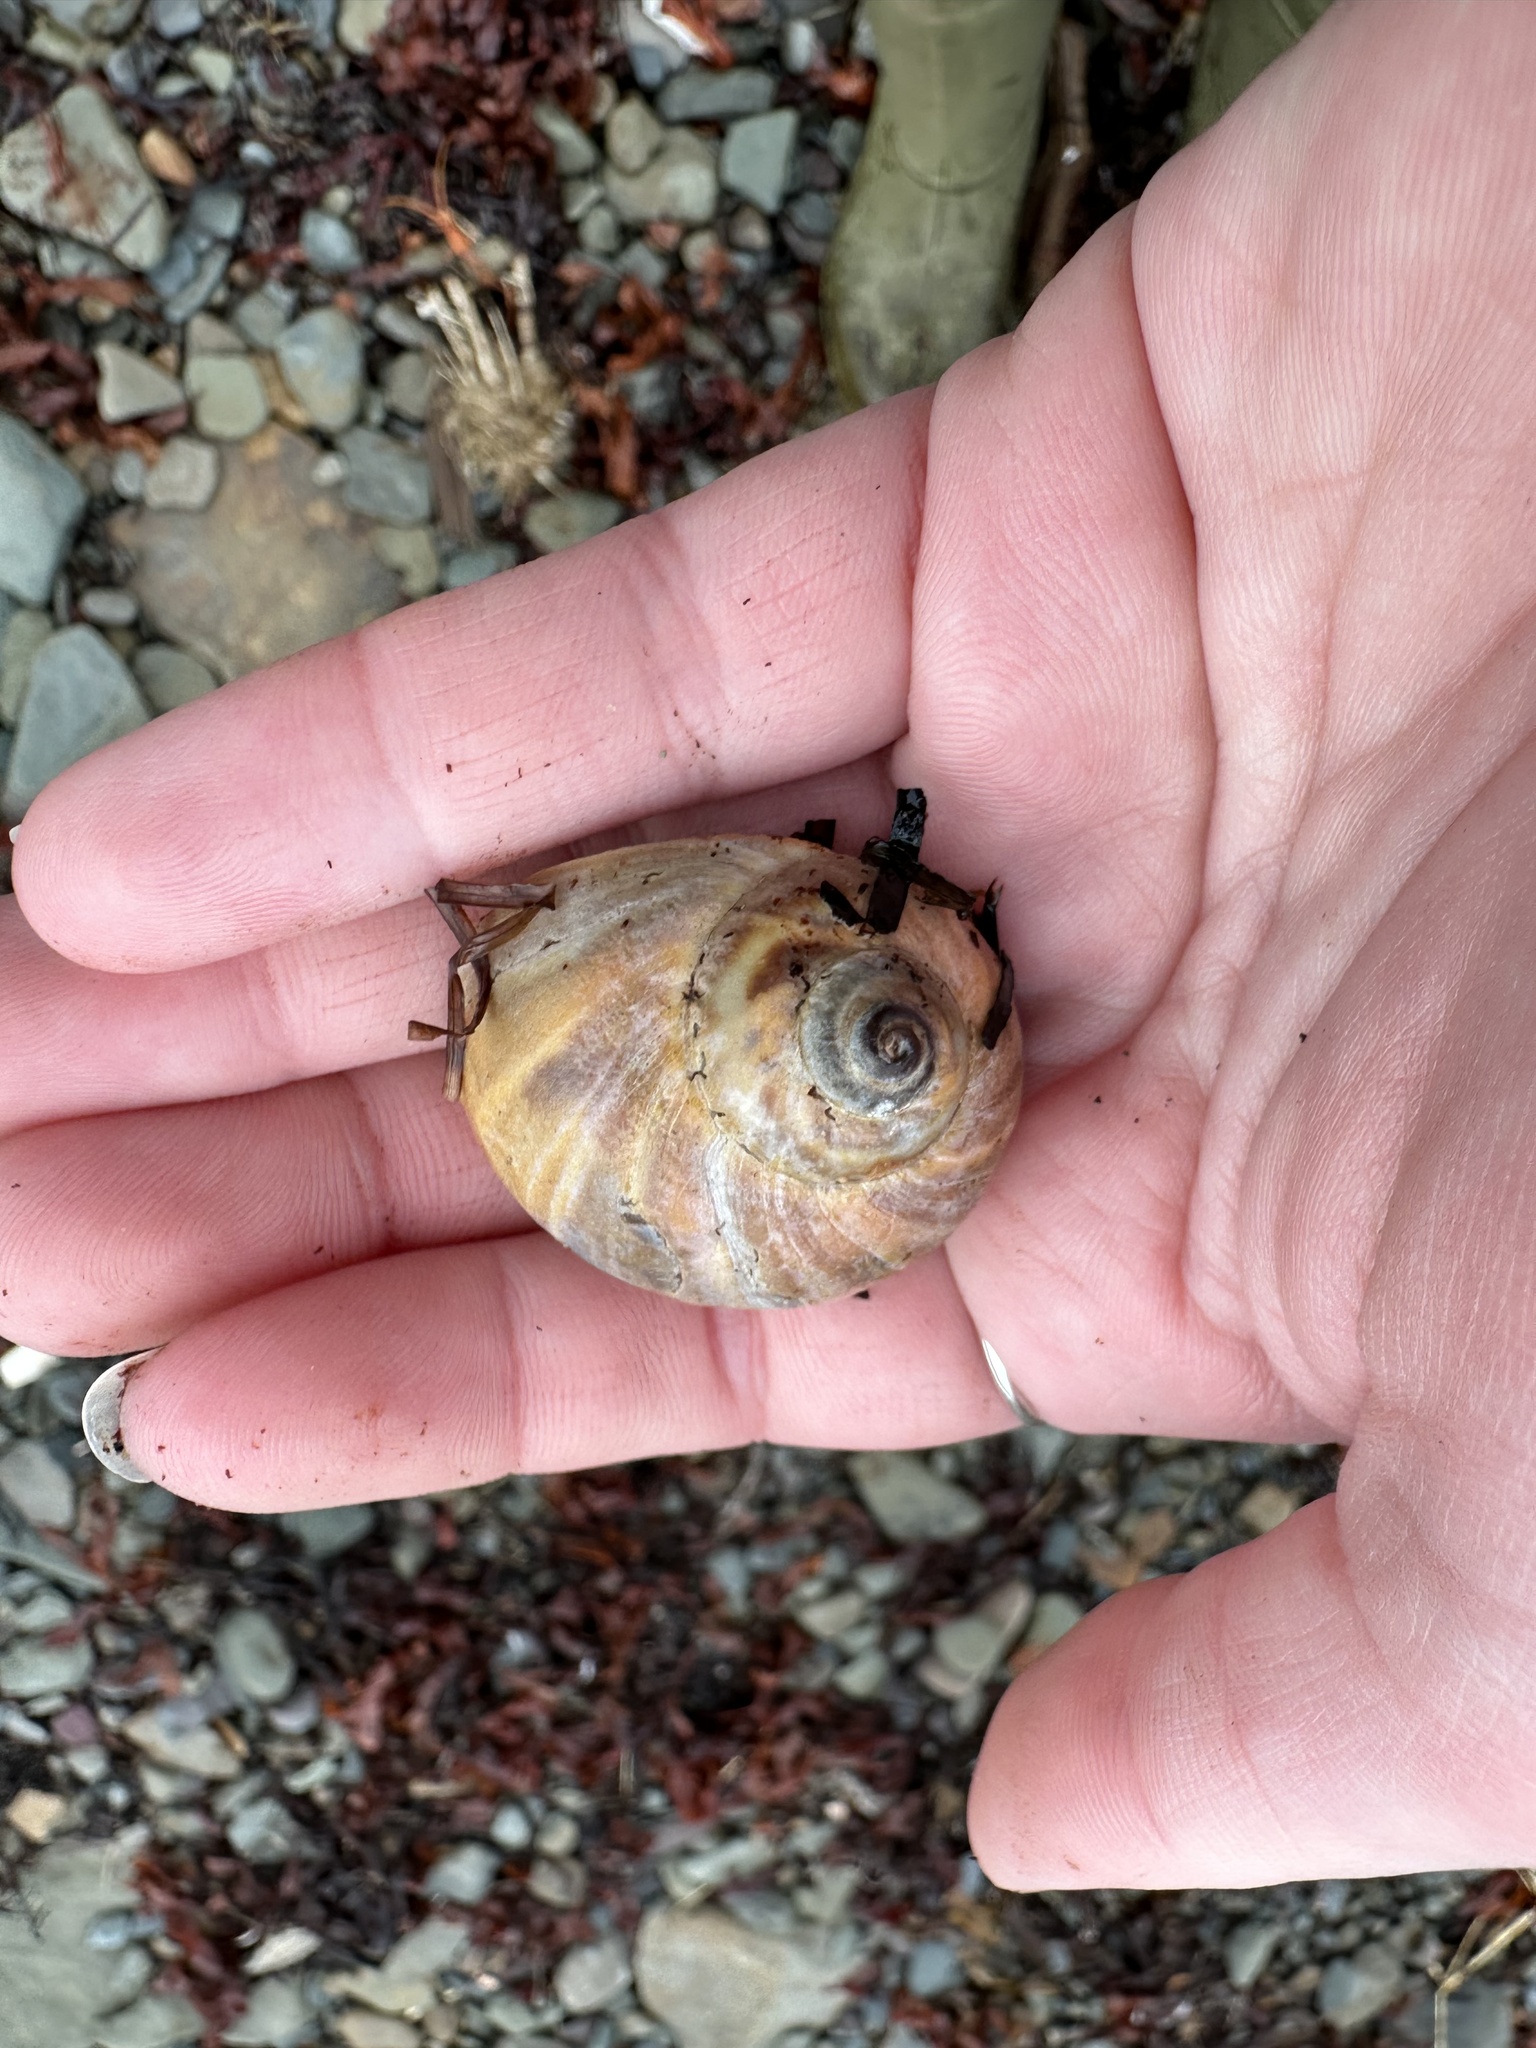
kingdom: Animalia
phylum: Mollusca
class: Gastropoda
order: Littorinimorpha
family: Naticidae
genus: Euspira
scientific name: Euspira heros
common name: Common northern moonsnail
